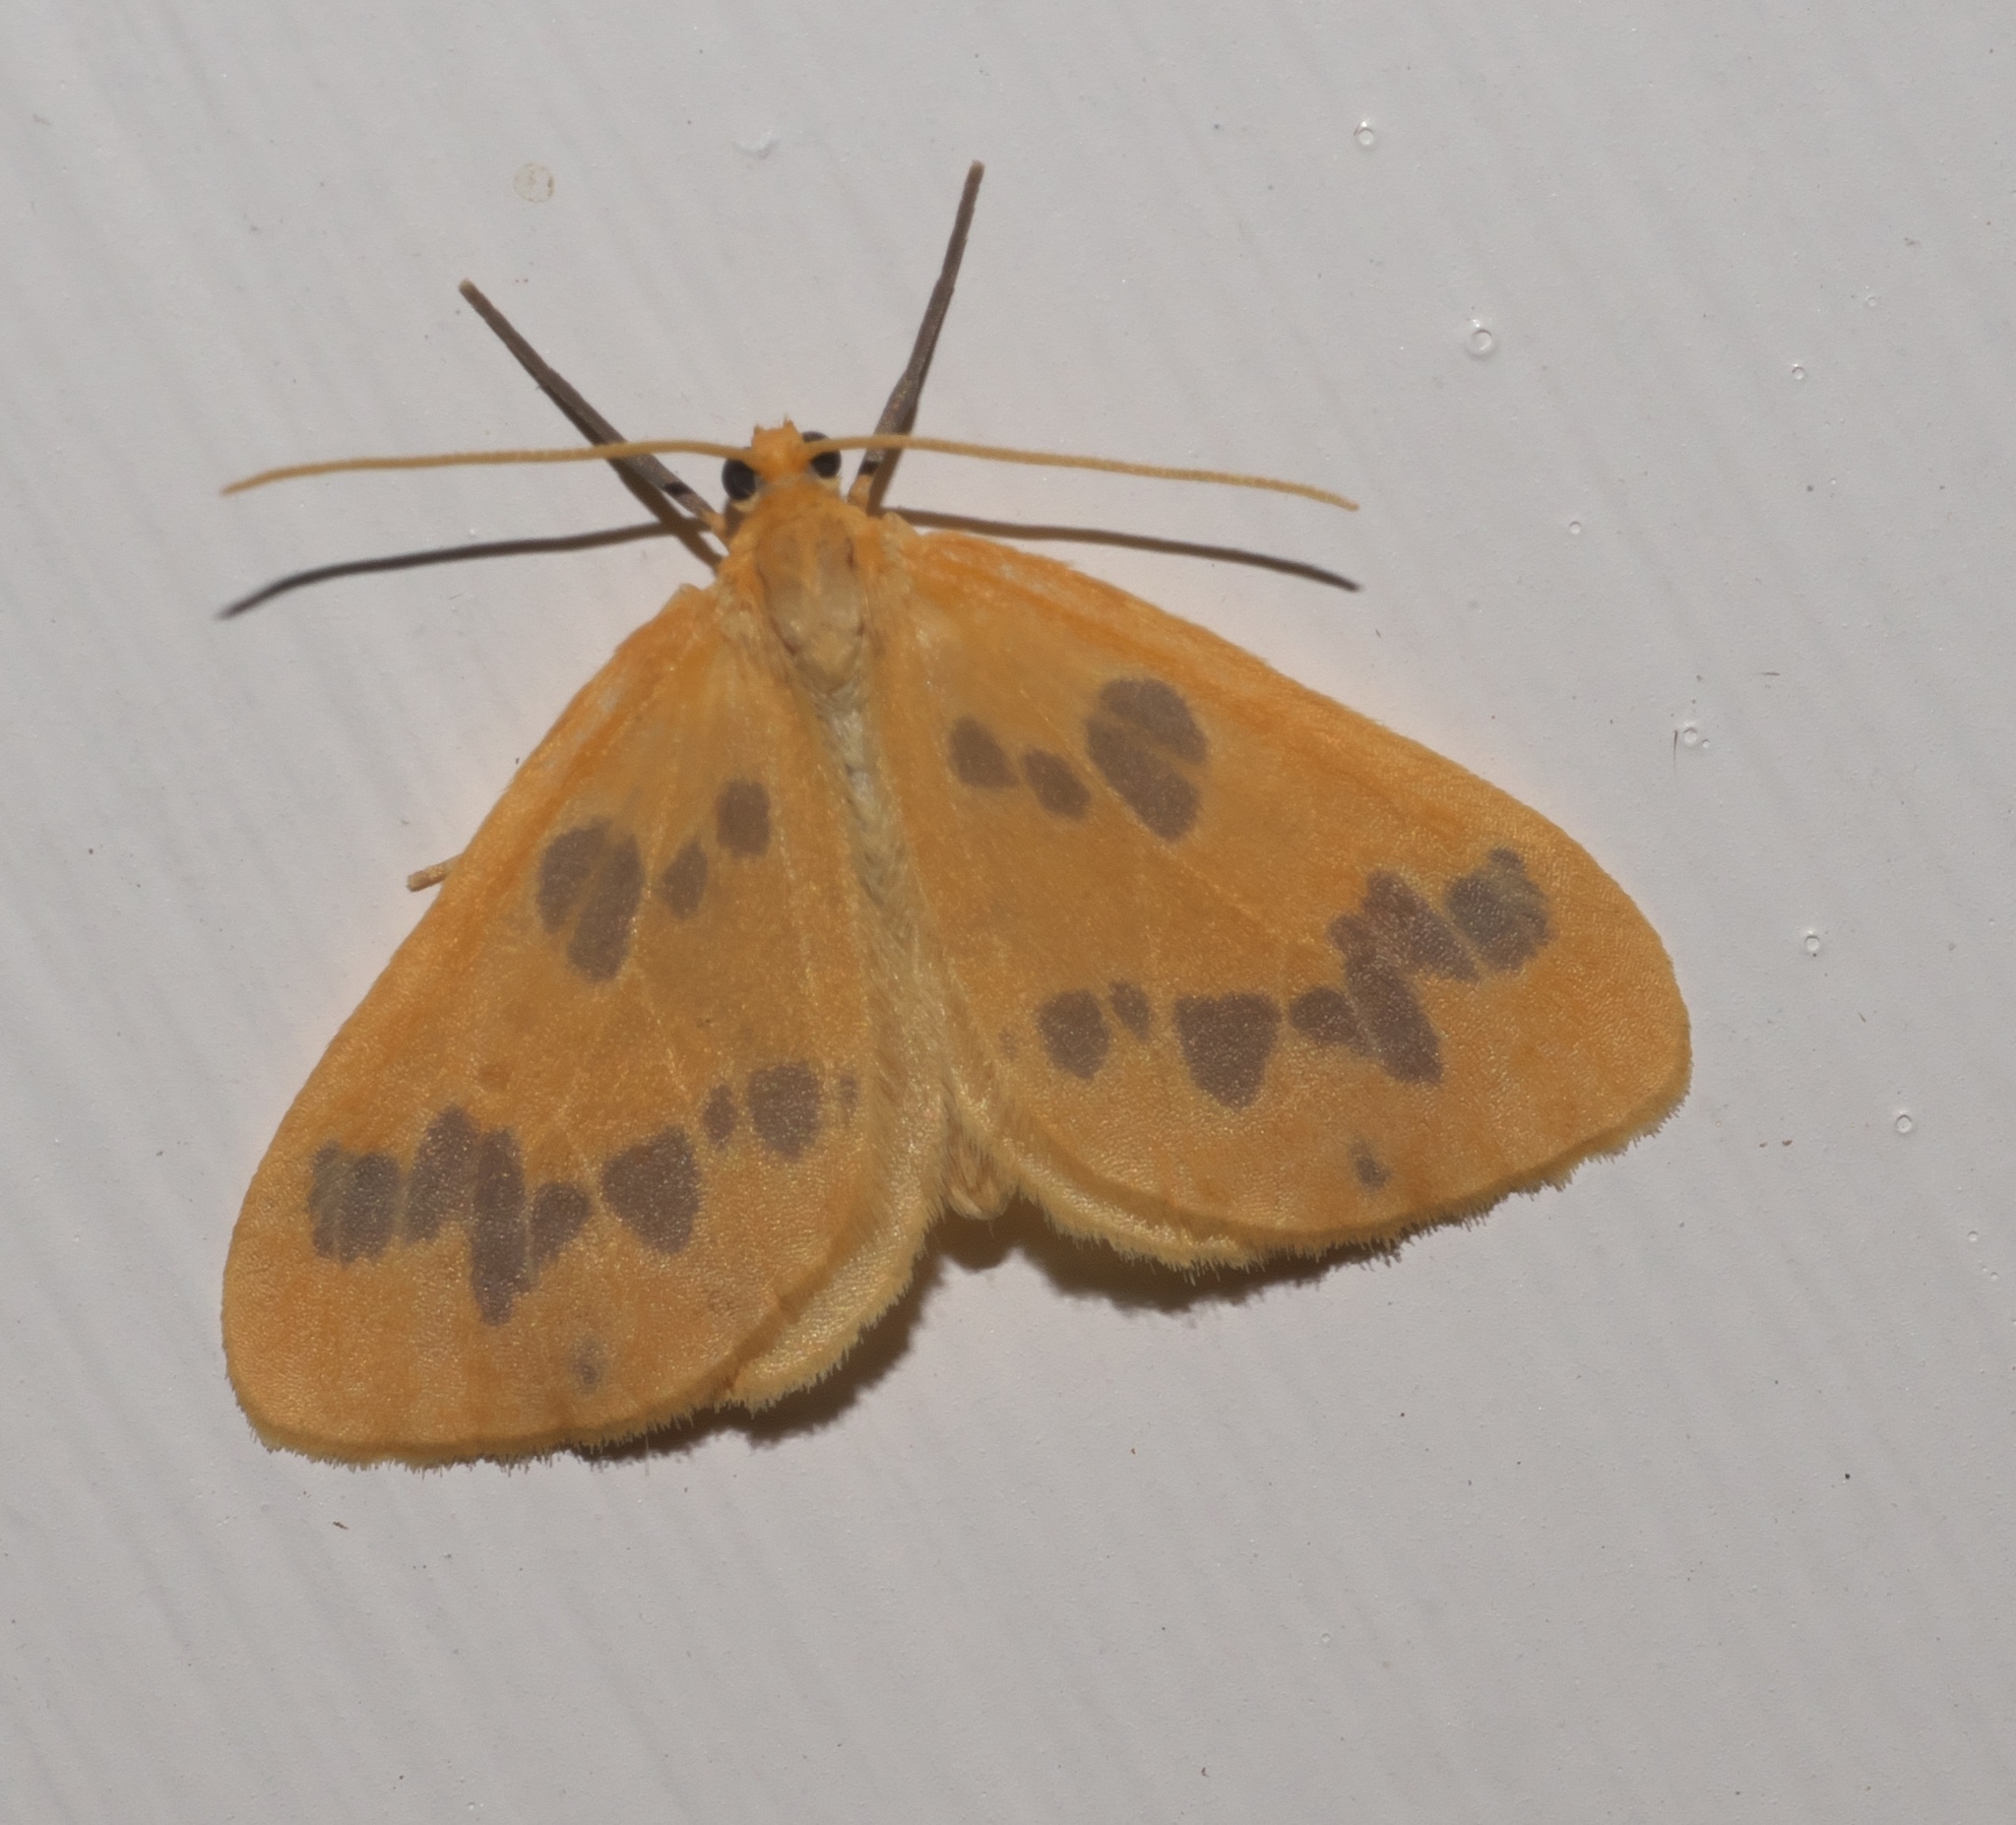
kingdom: Animalia
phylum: Arthropoda
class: Insecta
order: Lepidoptera
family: Geometridae
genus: Eubaphe
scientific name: Eubaphe mendica
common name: Beggar
